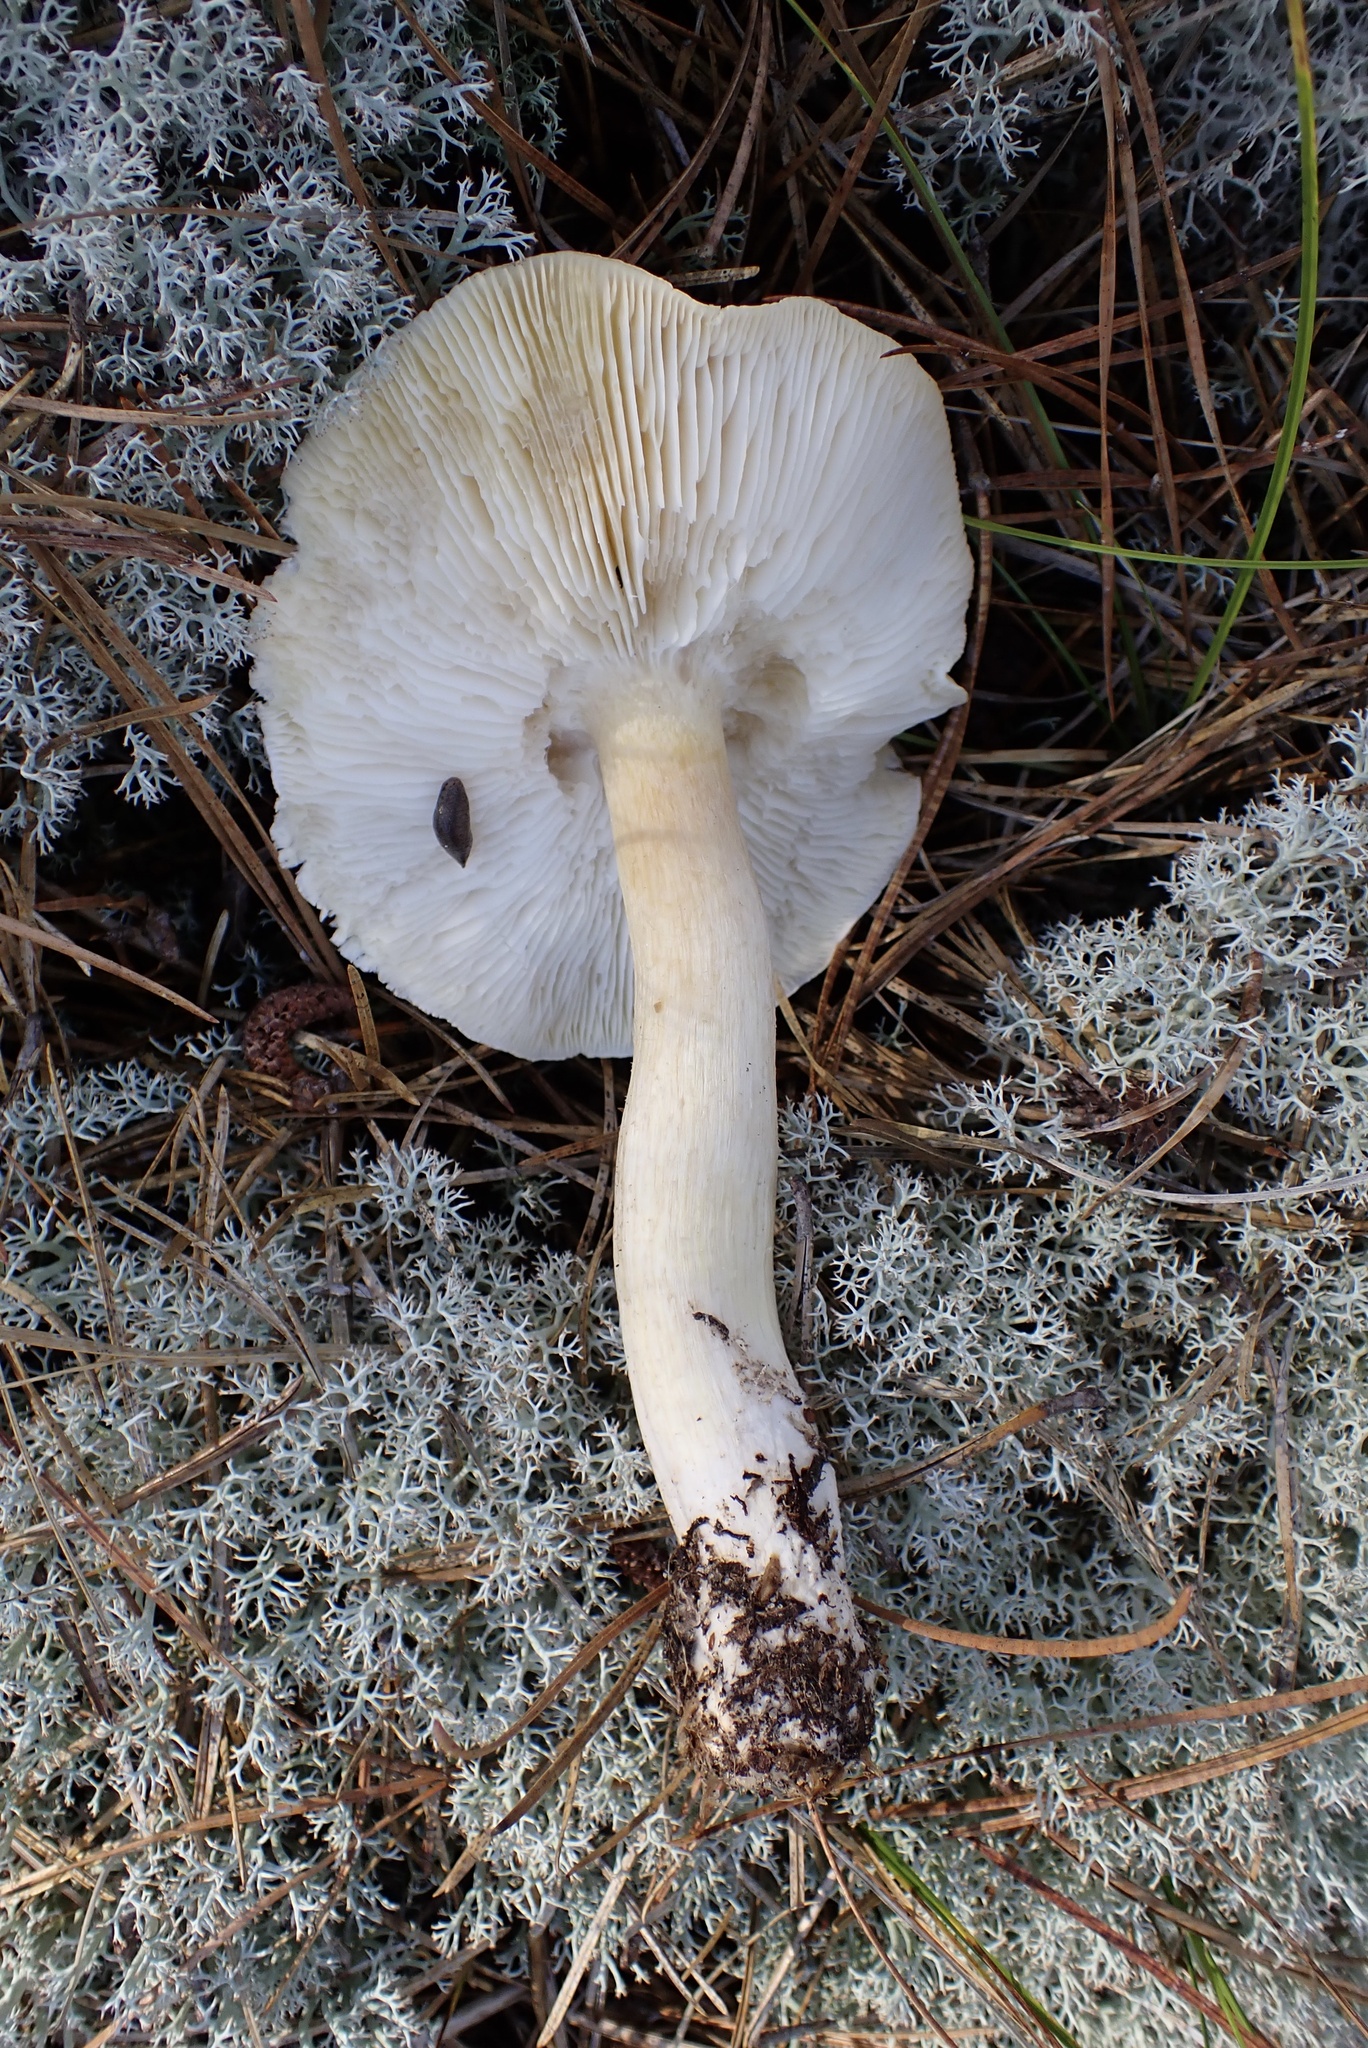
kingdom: Fungi
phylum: Basidiomycota
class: Agaricomycetes
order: Agaricales
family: Tricholomataceae
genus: Melanoleuca
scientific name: Melanoleuca davisiae
